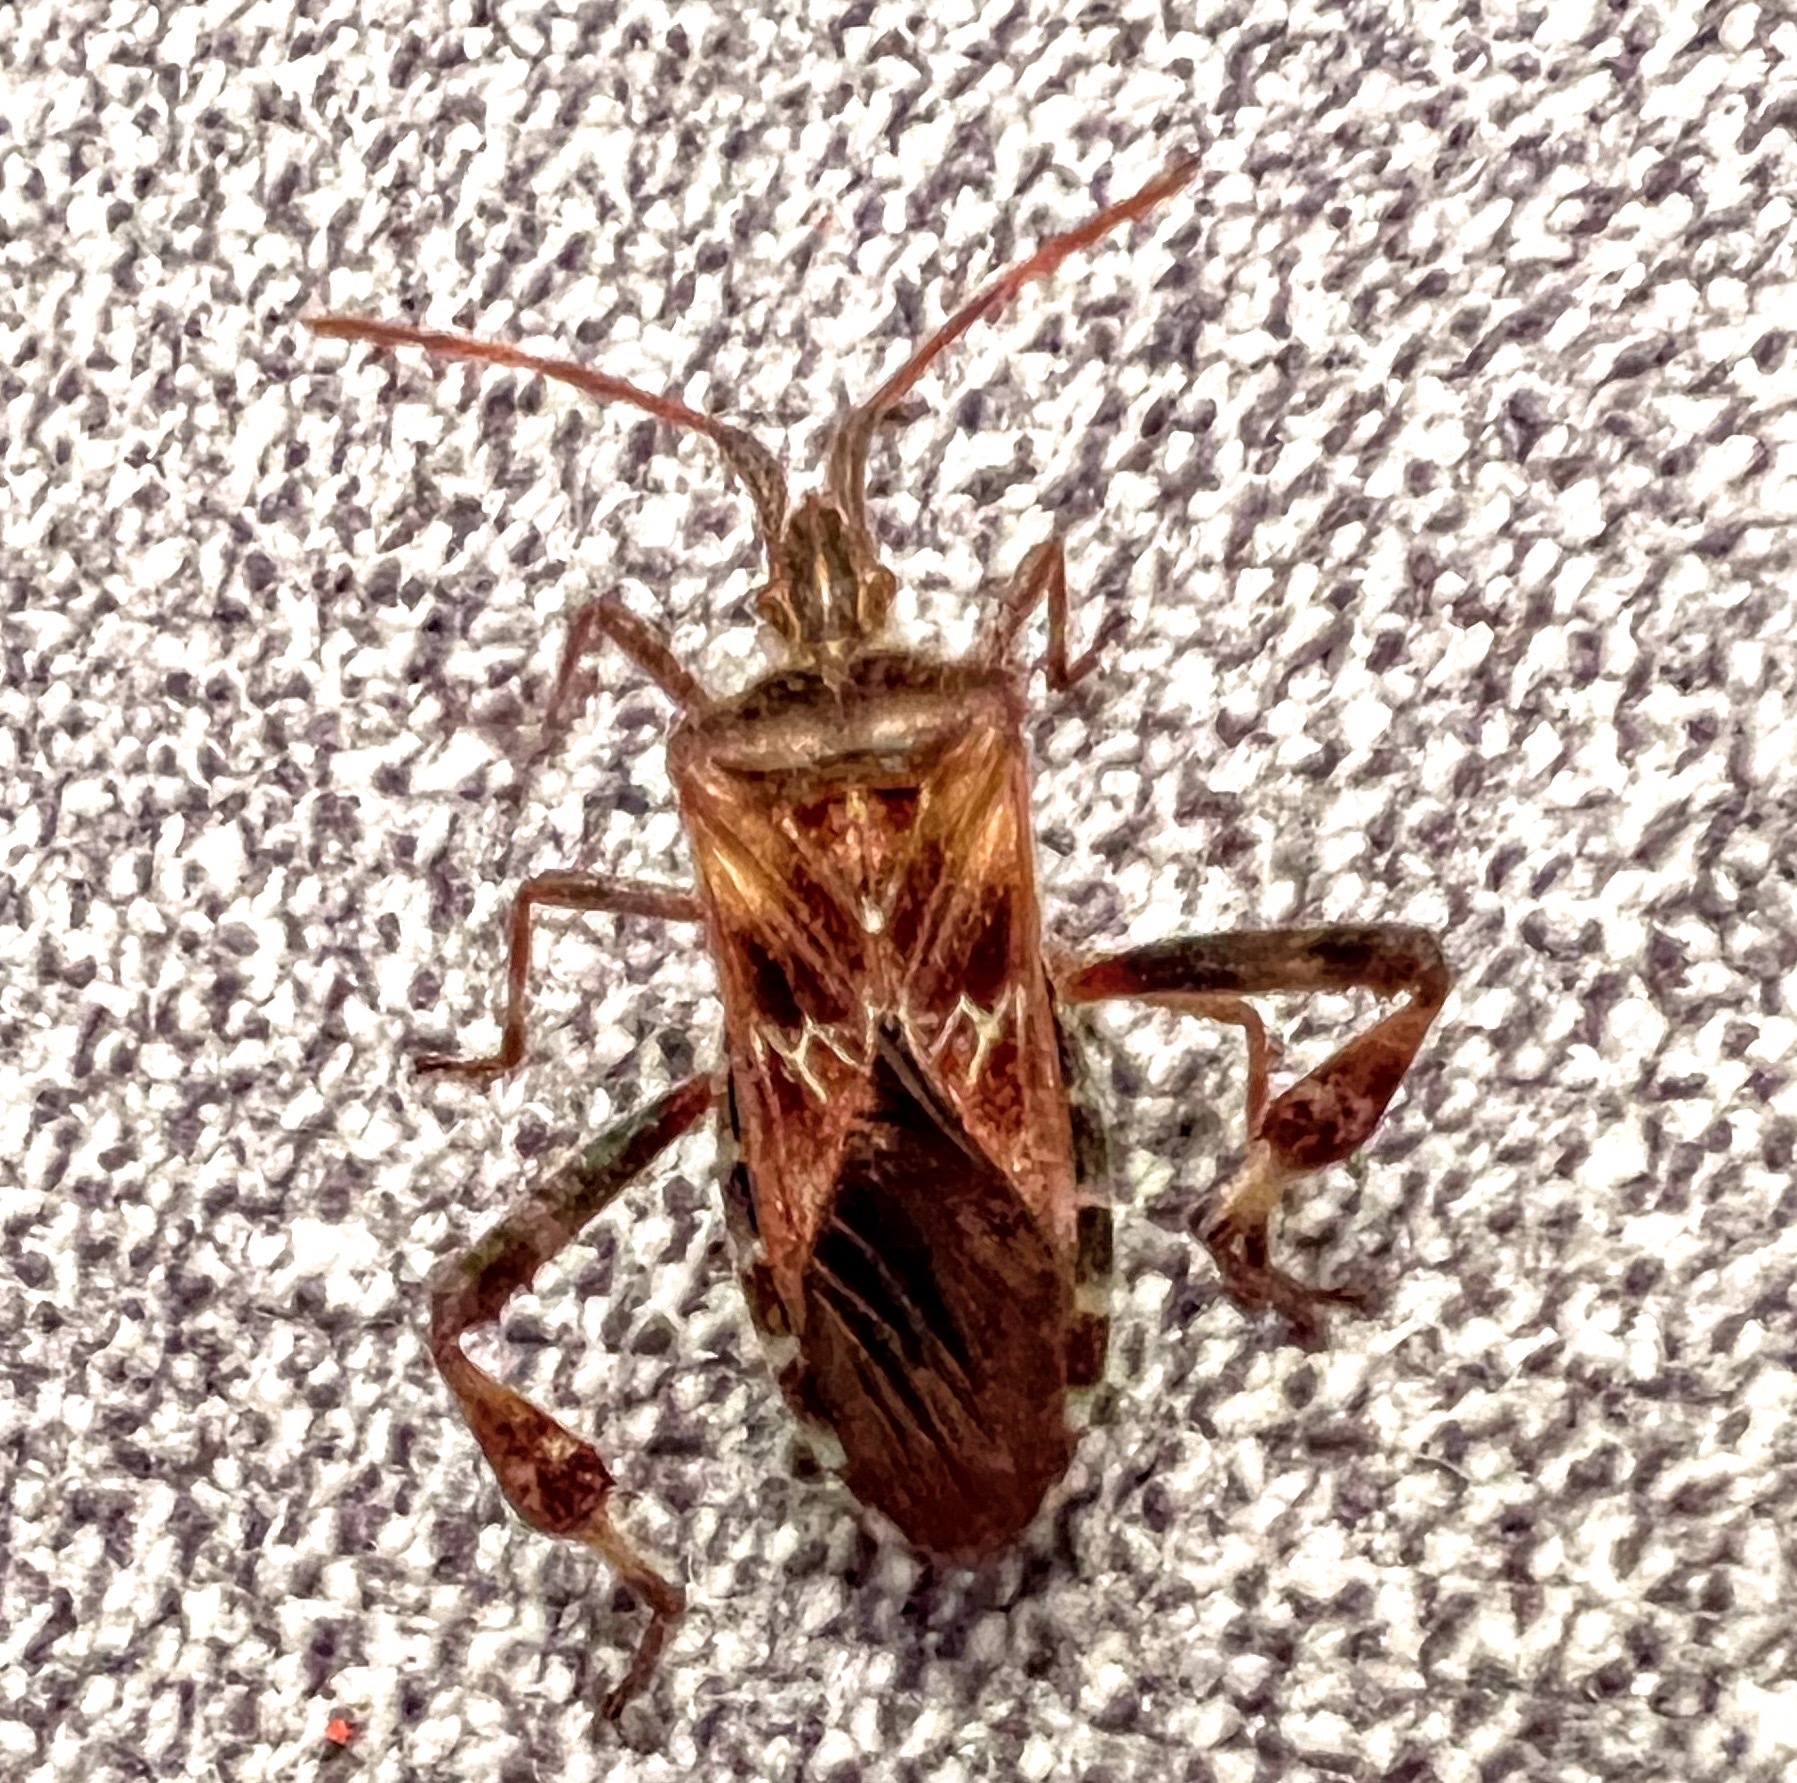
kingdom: Animalia
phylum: Arthropoda
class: Insecta
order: Hemiptera
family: Coreidae
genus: Leptoglossus
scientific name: Leptoglossus occidentalis
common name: Western conifer-seed bug
